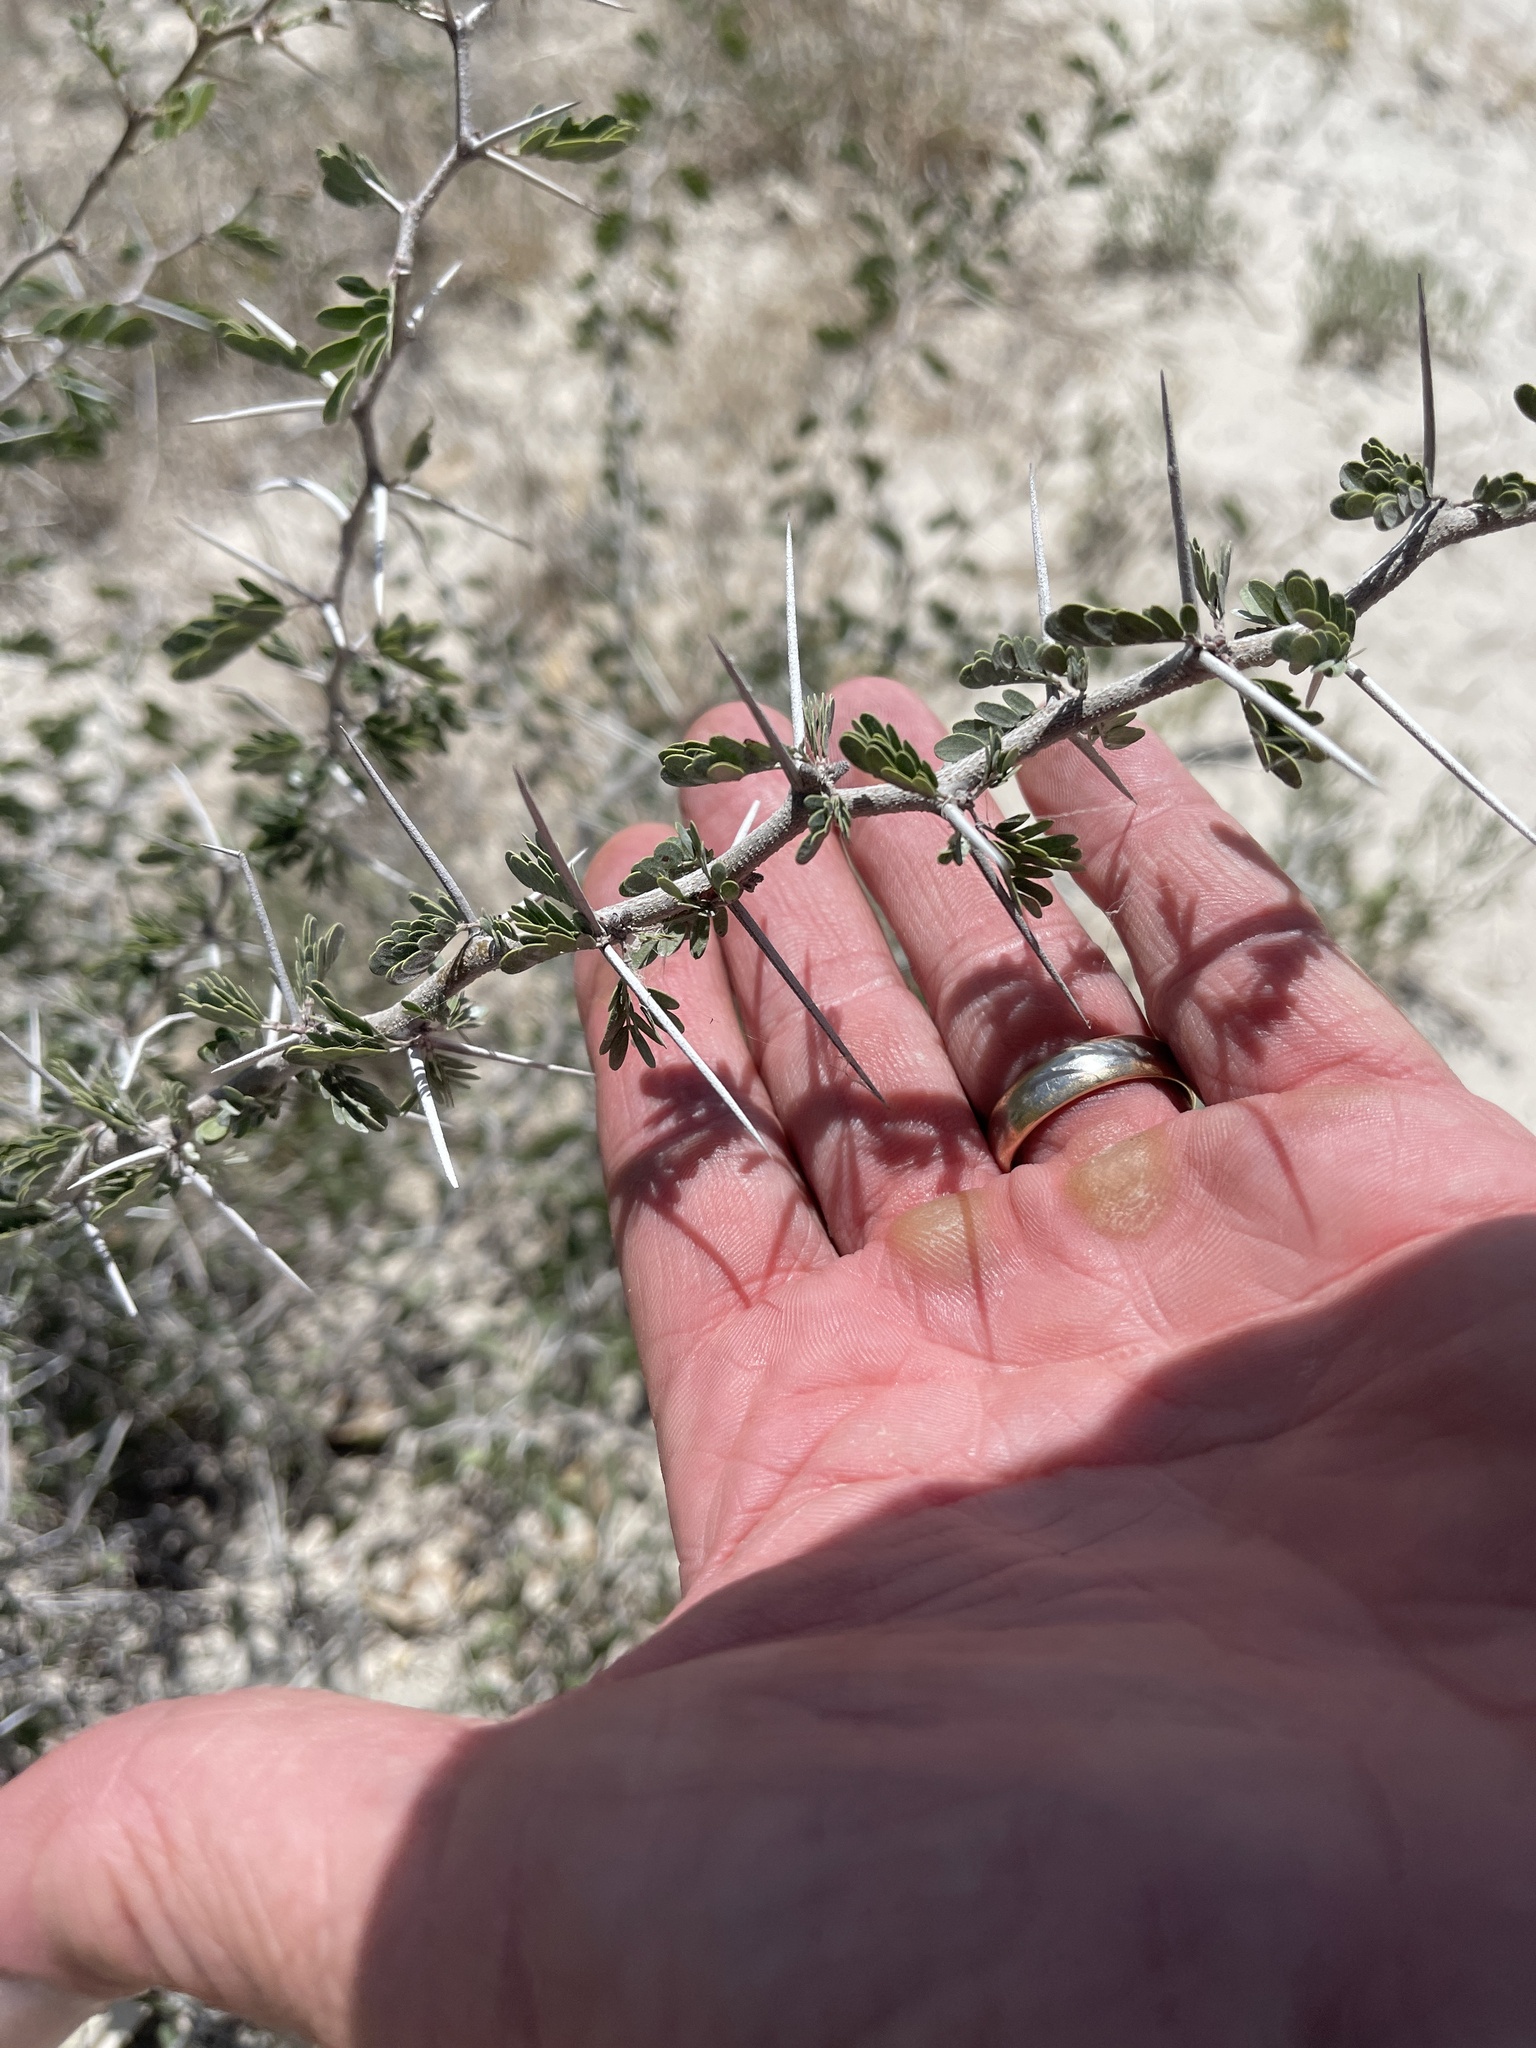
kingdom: Plantae
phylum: Tracheophyta
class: Magnoliopsida
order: Fabales
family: Fabaceae
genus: Vachellia
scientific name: Vachellia rigidula
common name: Blackbrush
